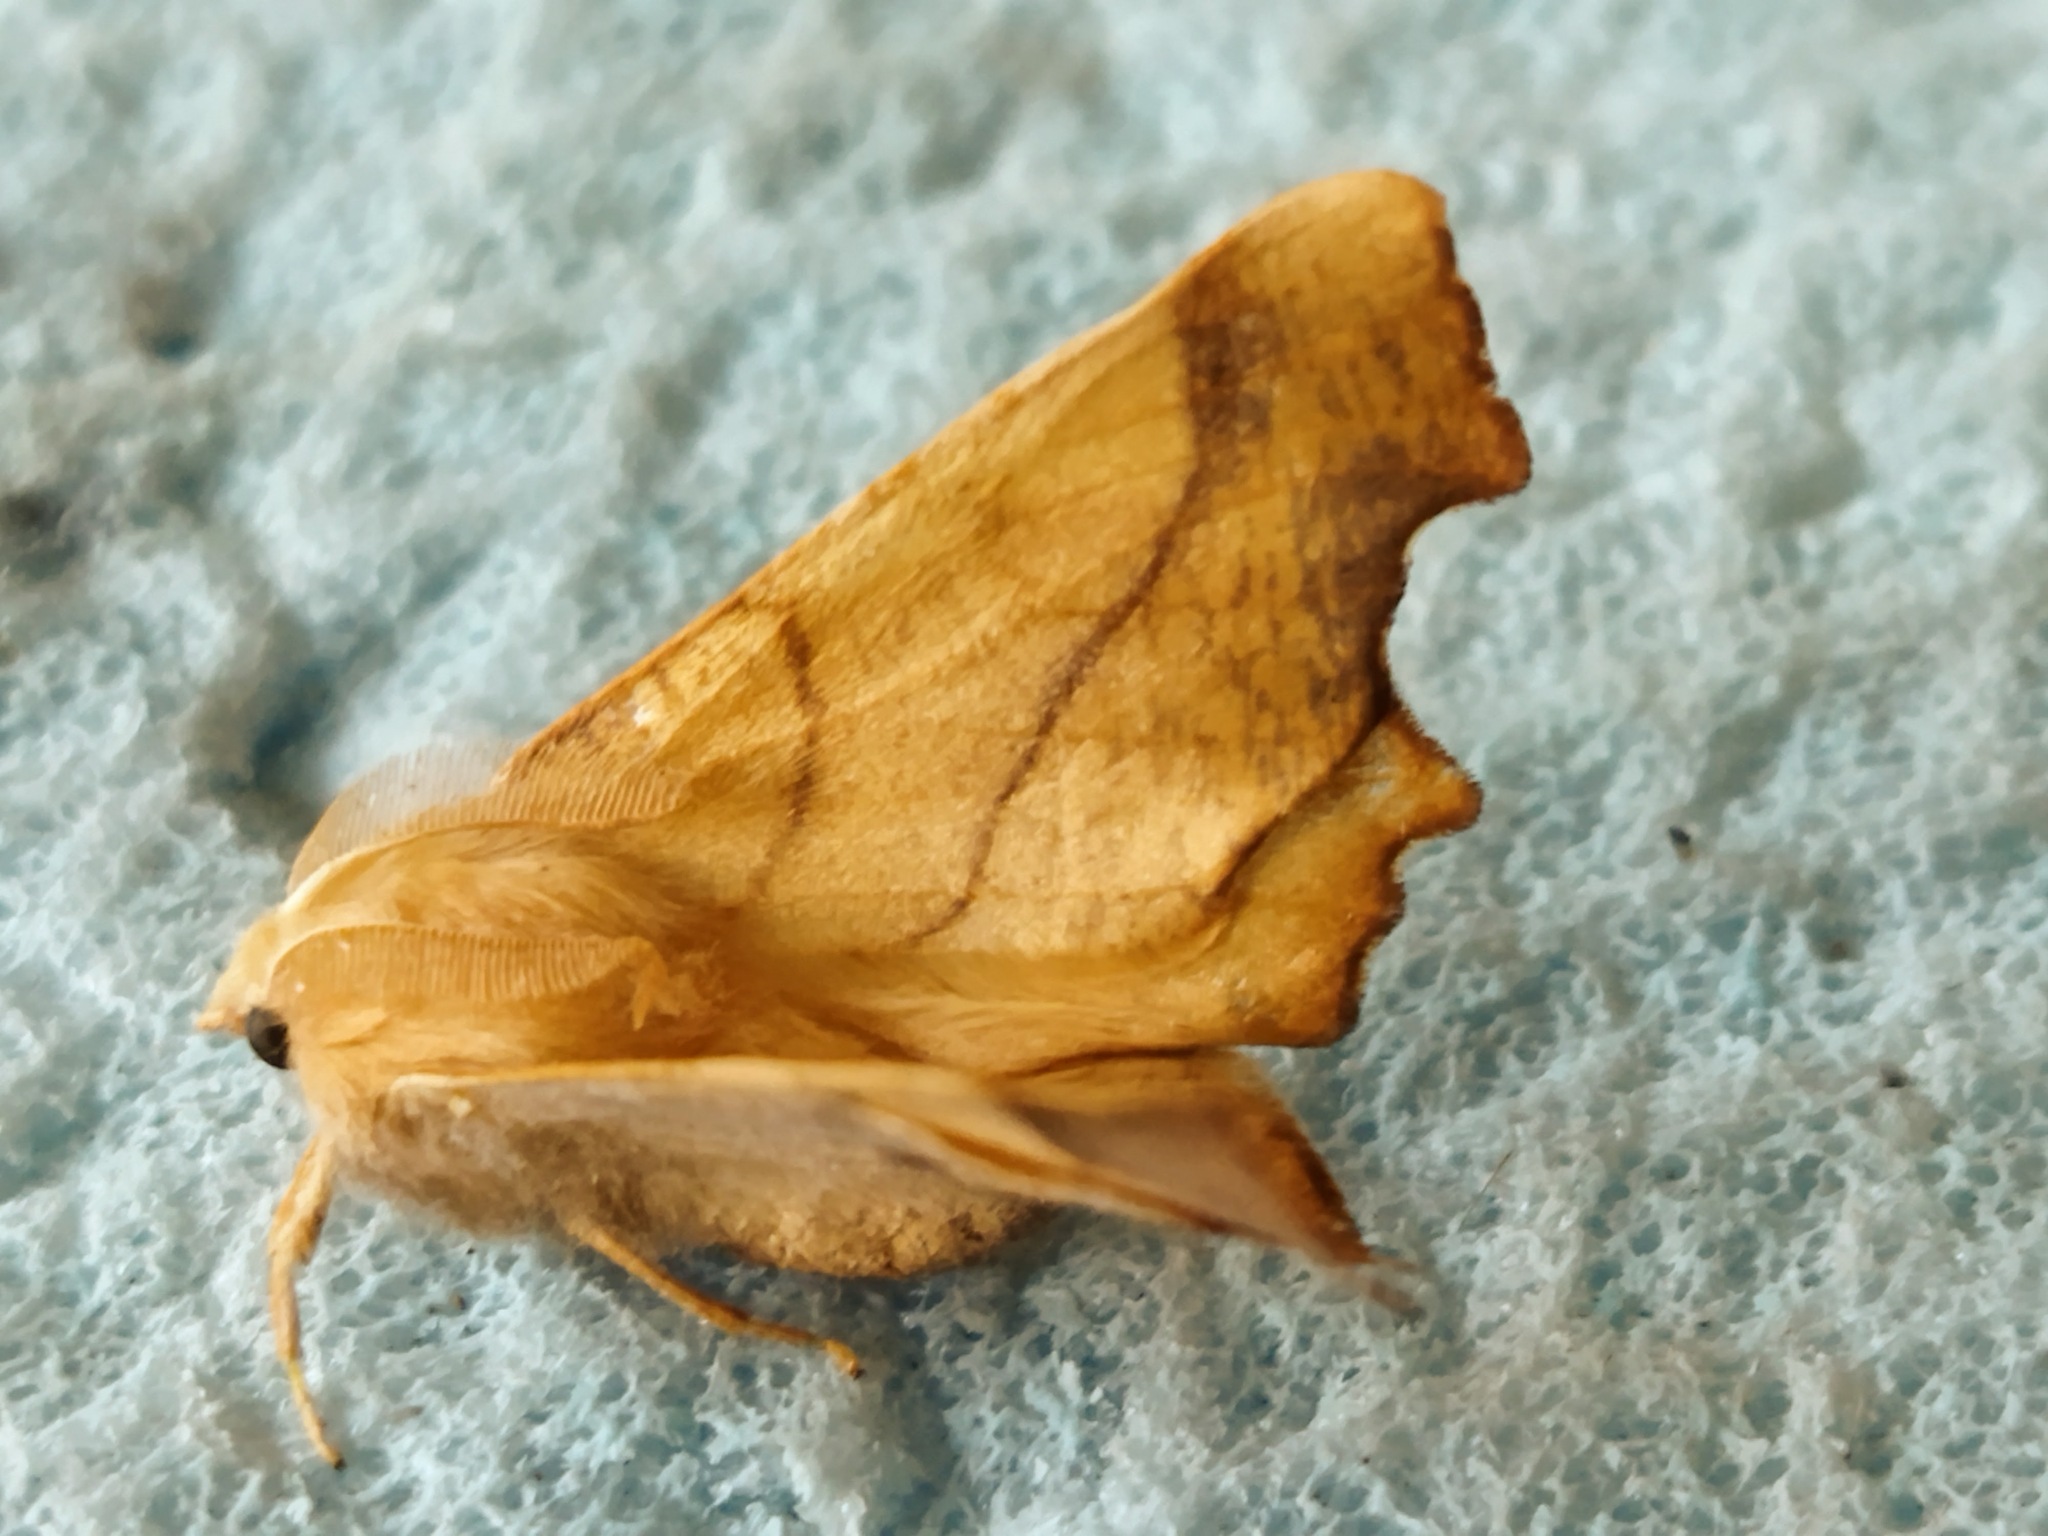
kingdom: Animalia
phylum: Arthropoda
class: Insecta
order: Lepidoptera
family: Geometridae
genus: Ennomos
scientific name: Ennomos fuscantaria
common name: Dusky thorn
